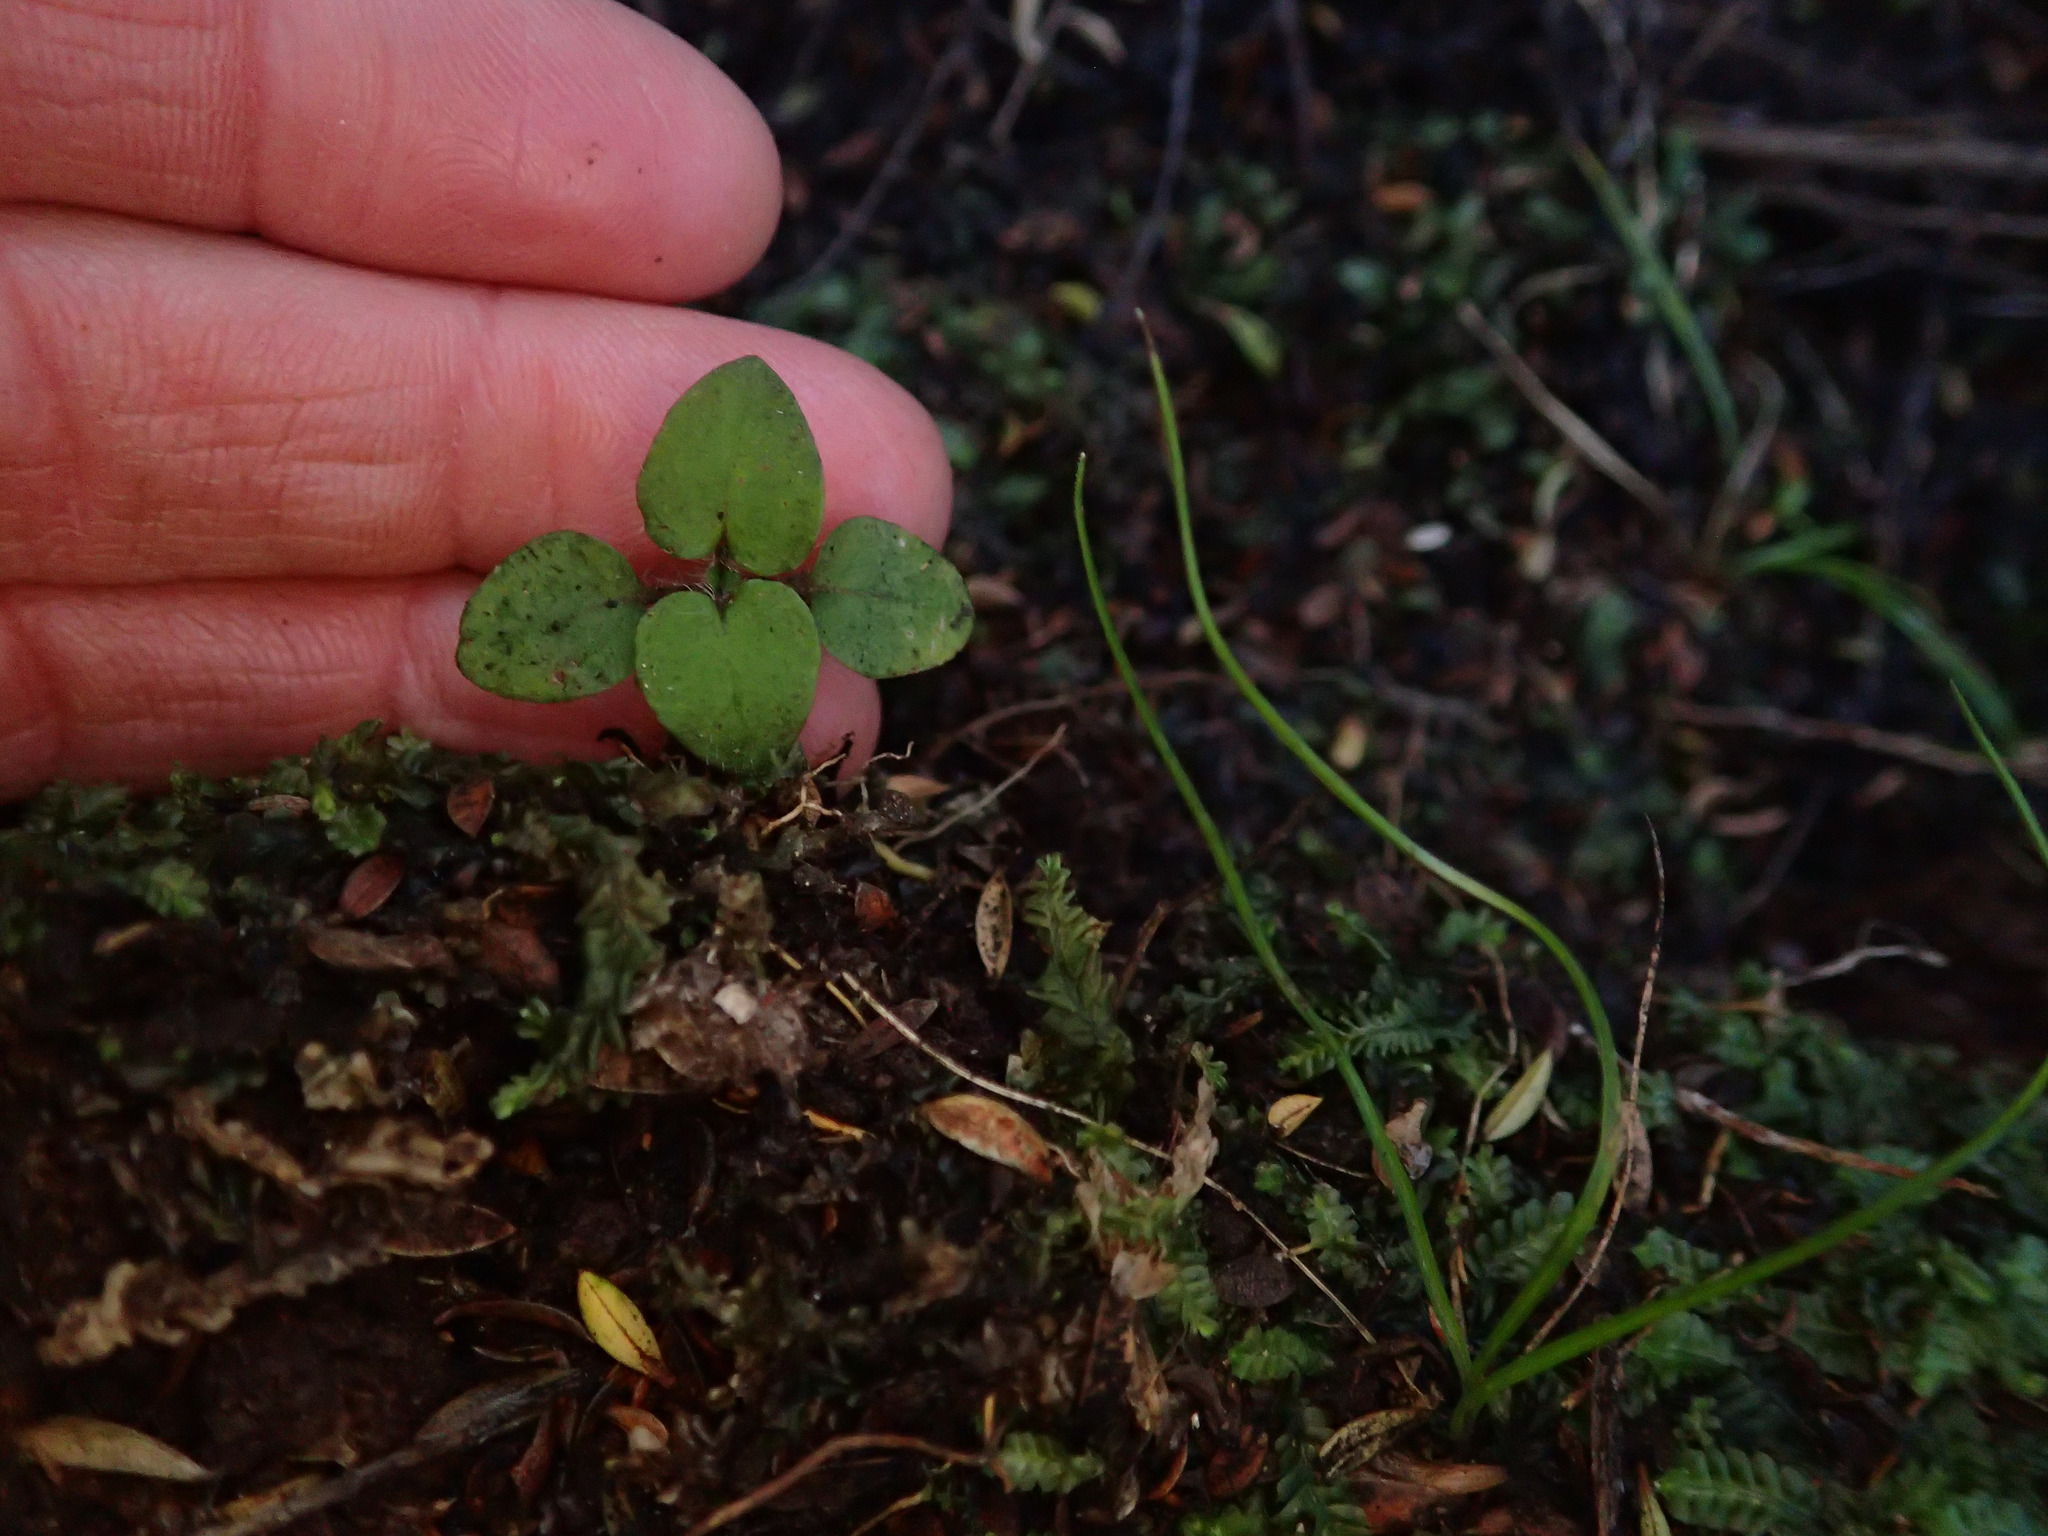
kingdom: Plantae
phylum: Tracheophyta
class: Magnoliopsida
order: Gentianales
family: Rubiaceae
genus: Nertera
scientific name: Nertera villosa
